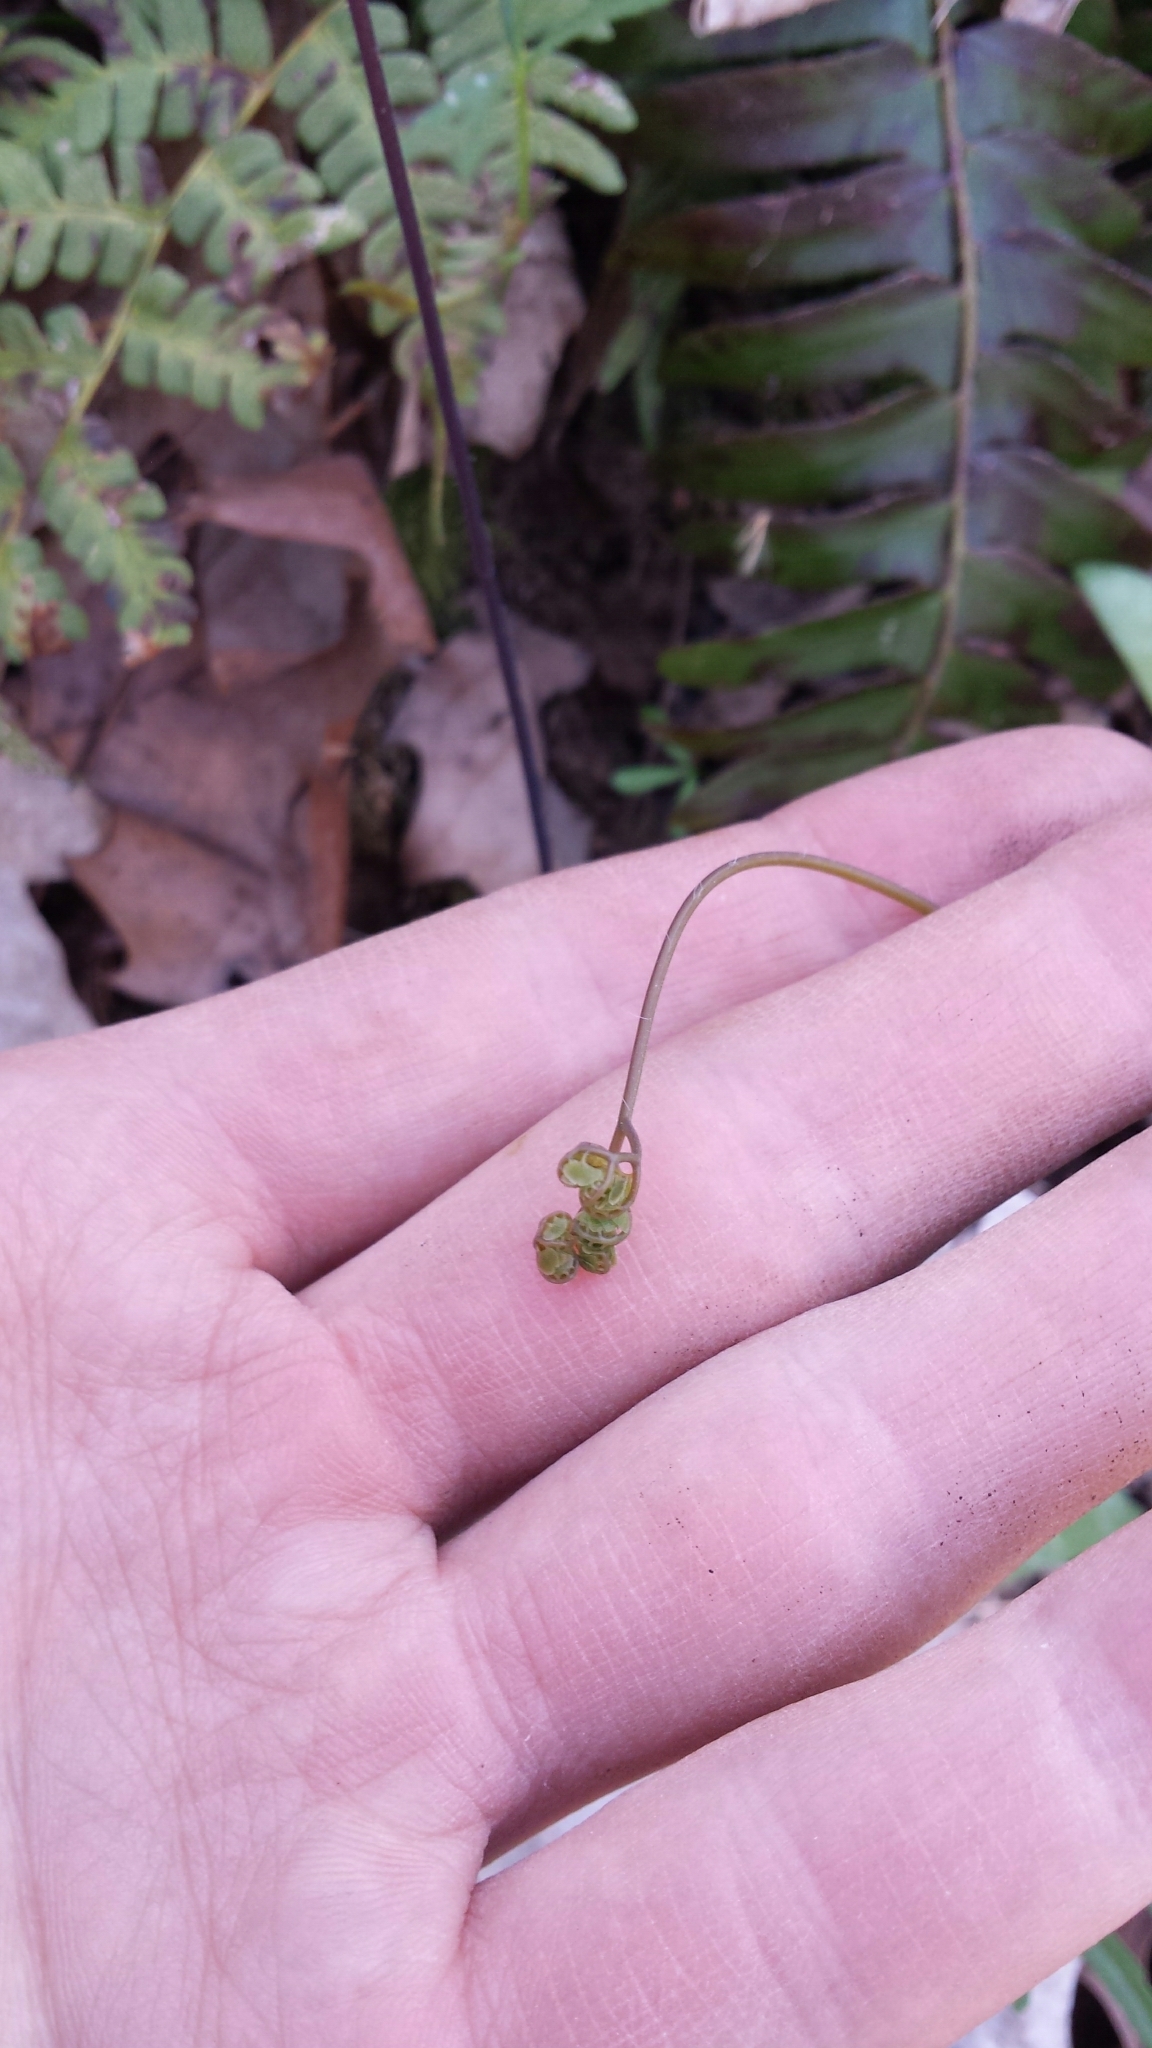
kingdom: Plantae
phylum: Tracheophyta
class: Polypodiopsida
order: Polypodiales
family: Pteridaceae
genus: Adiantum
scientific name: Adiantum pedatum
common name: Five-finger fern
